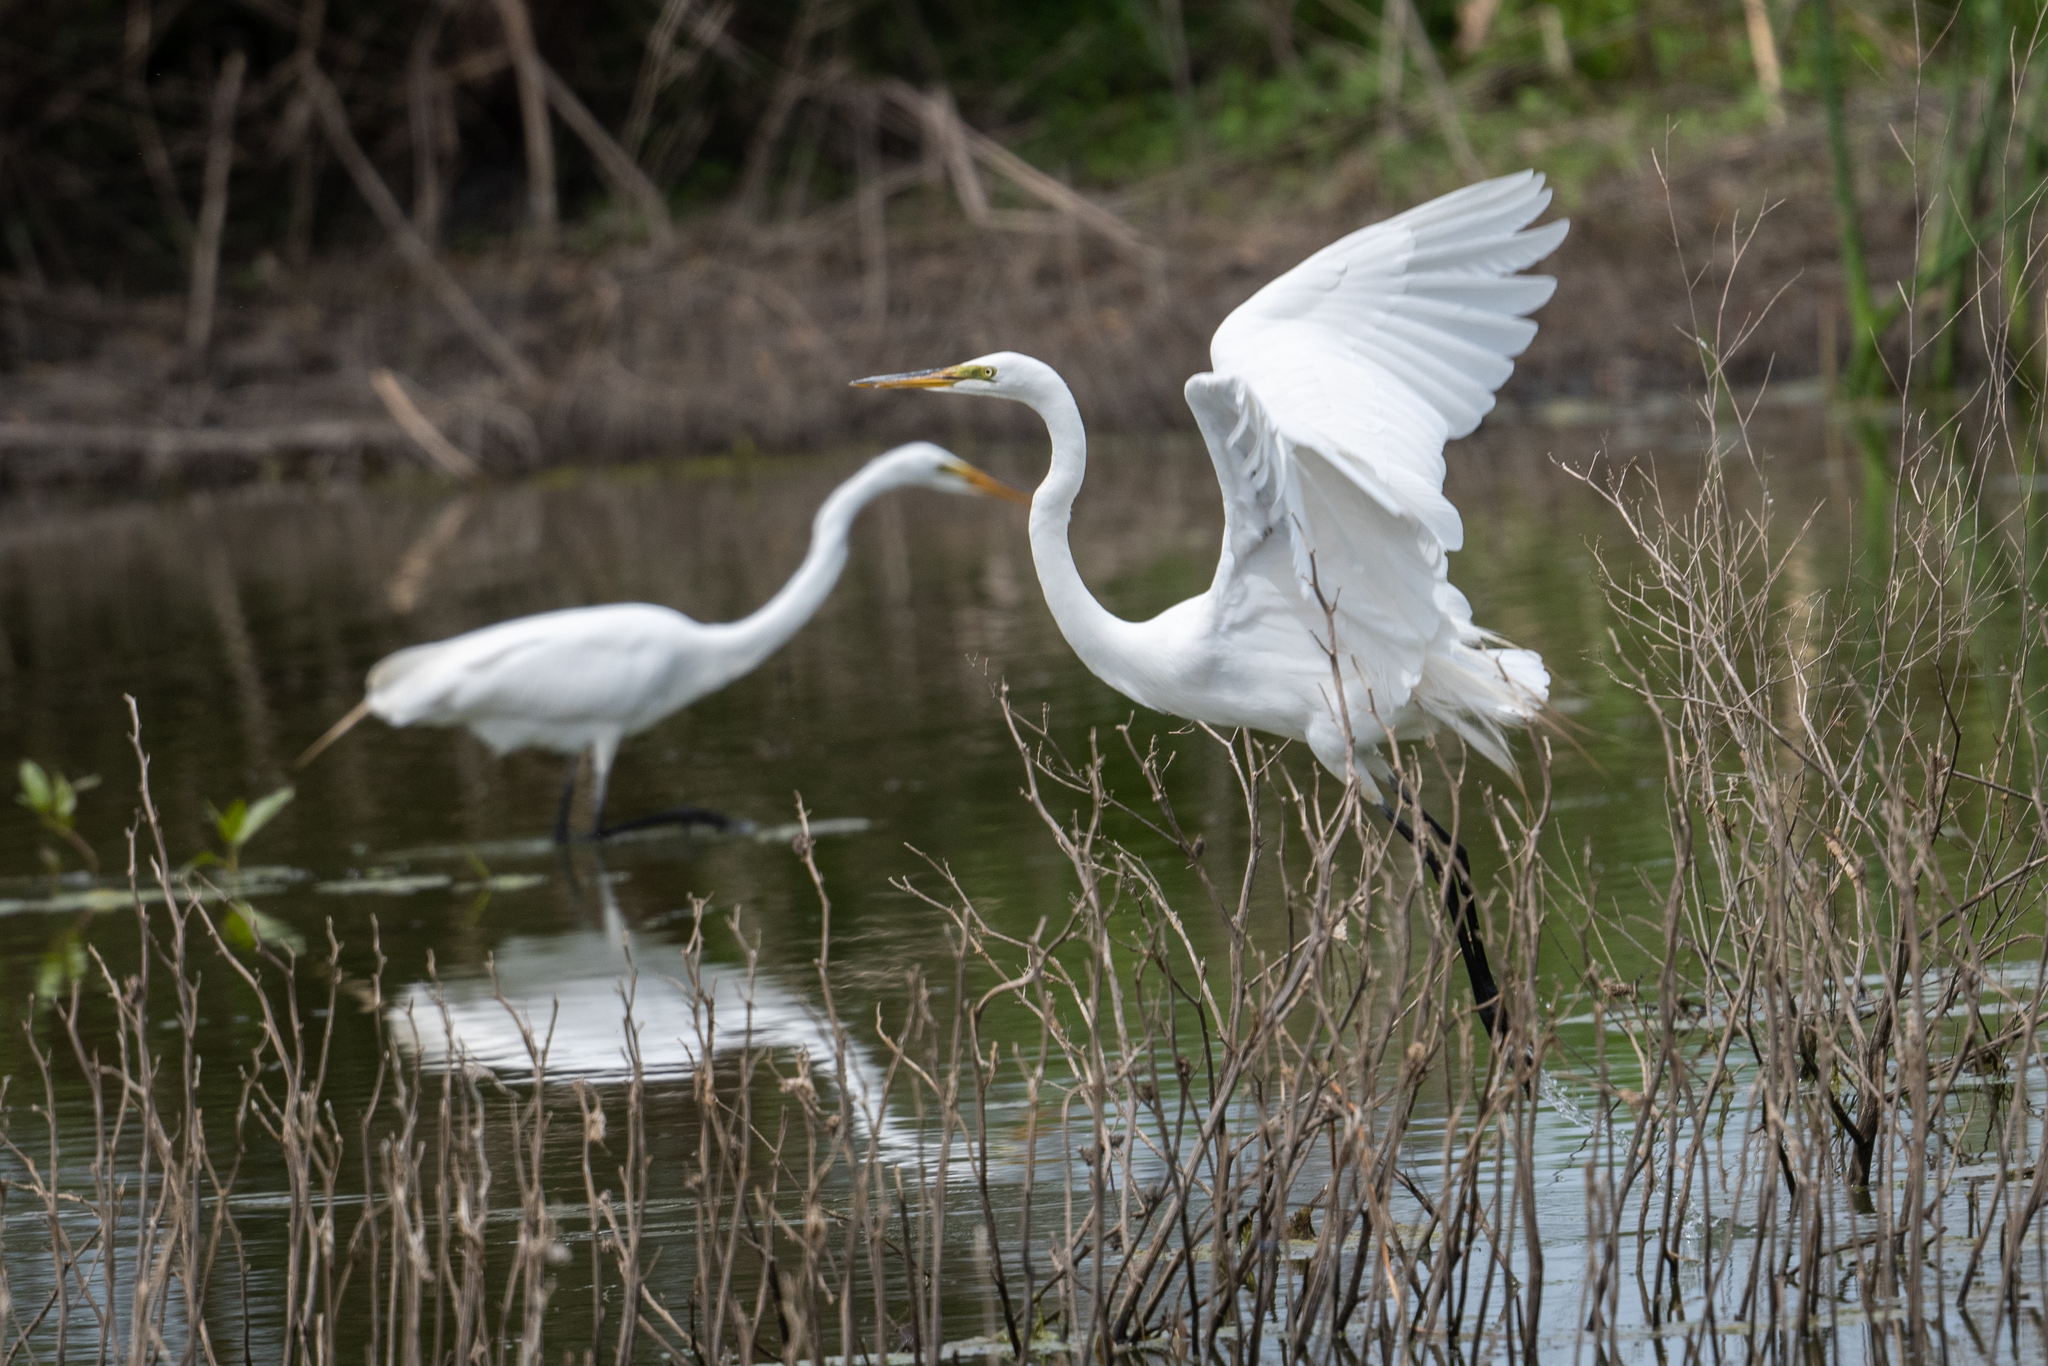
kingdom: Animalia
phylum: Chordata
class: Aves
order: Pelecaniformes
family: Ardeidae
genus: Ardea
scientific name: Ardea alba
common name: Great egret
